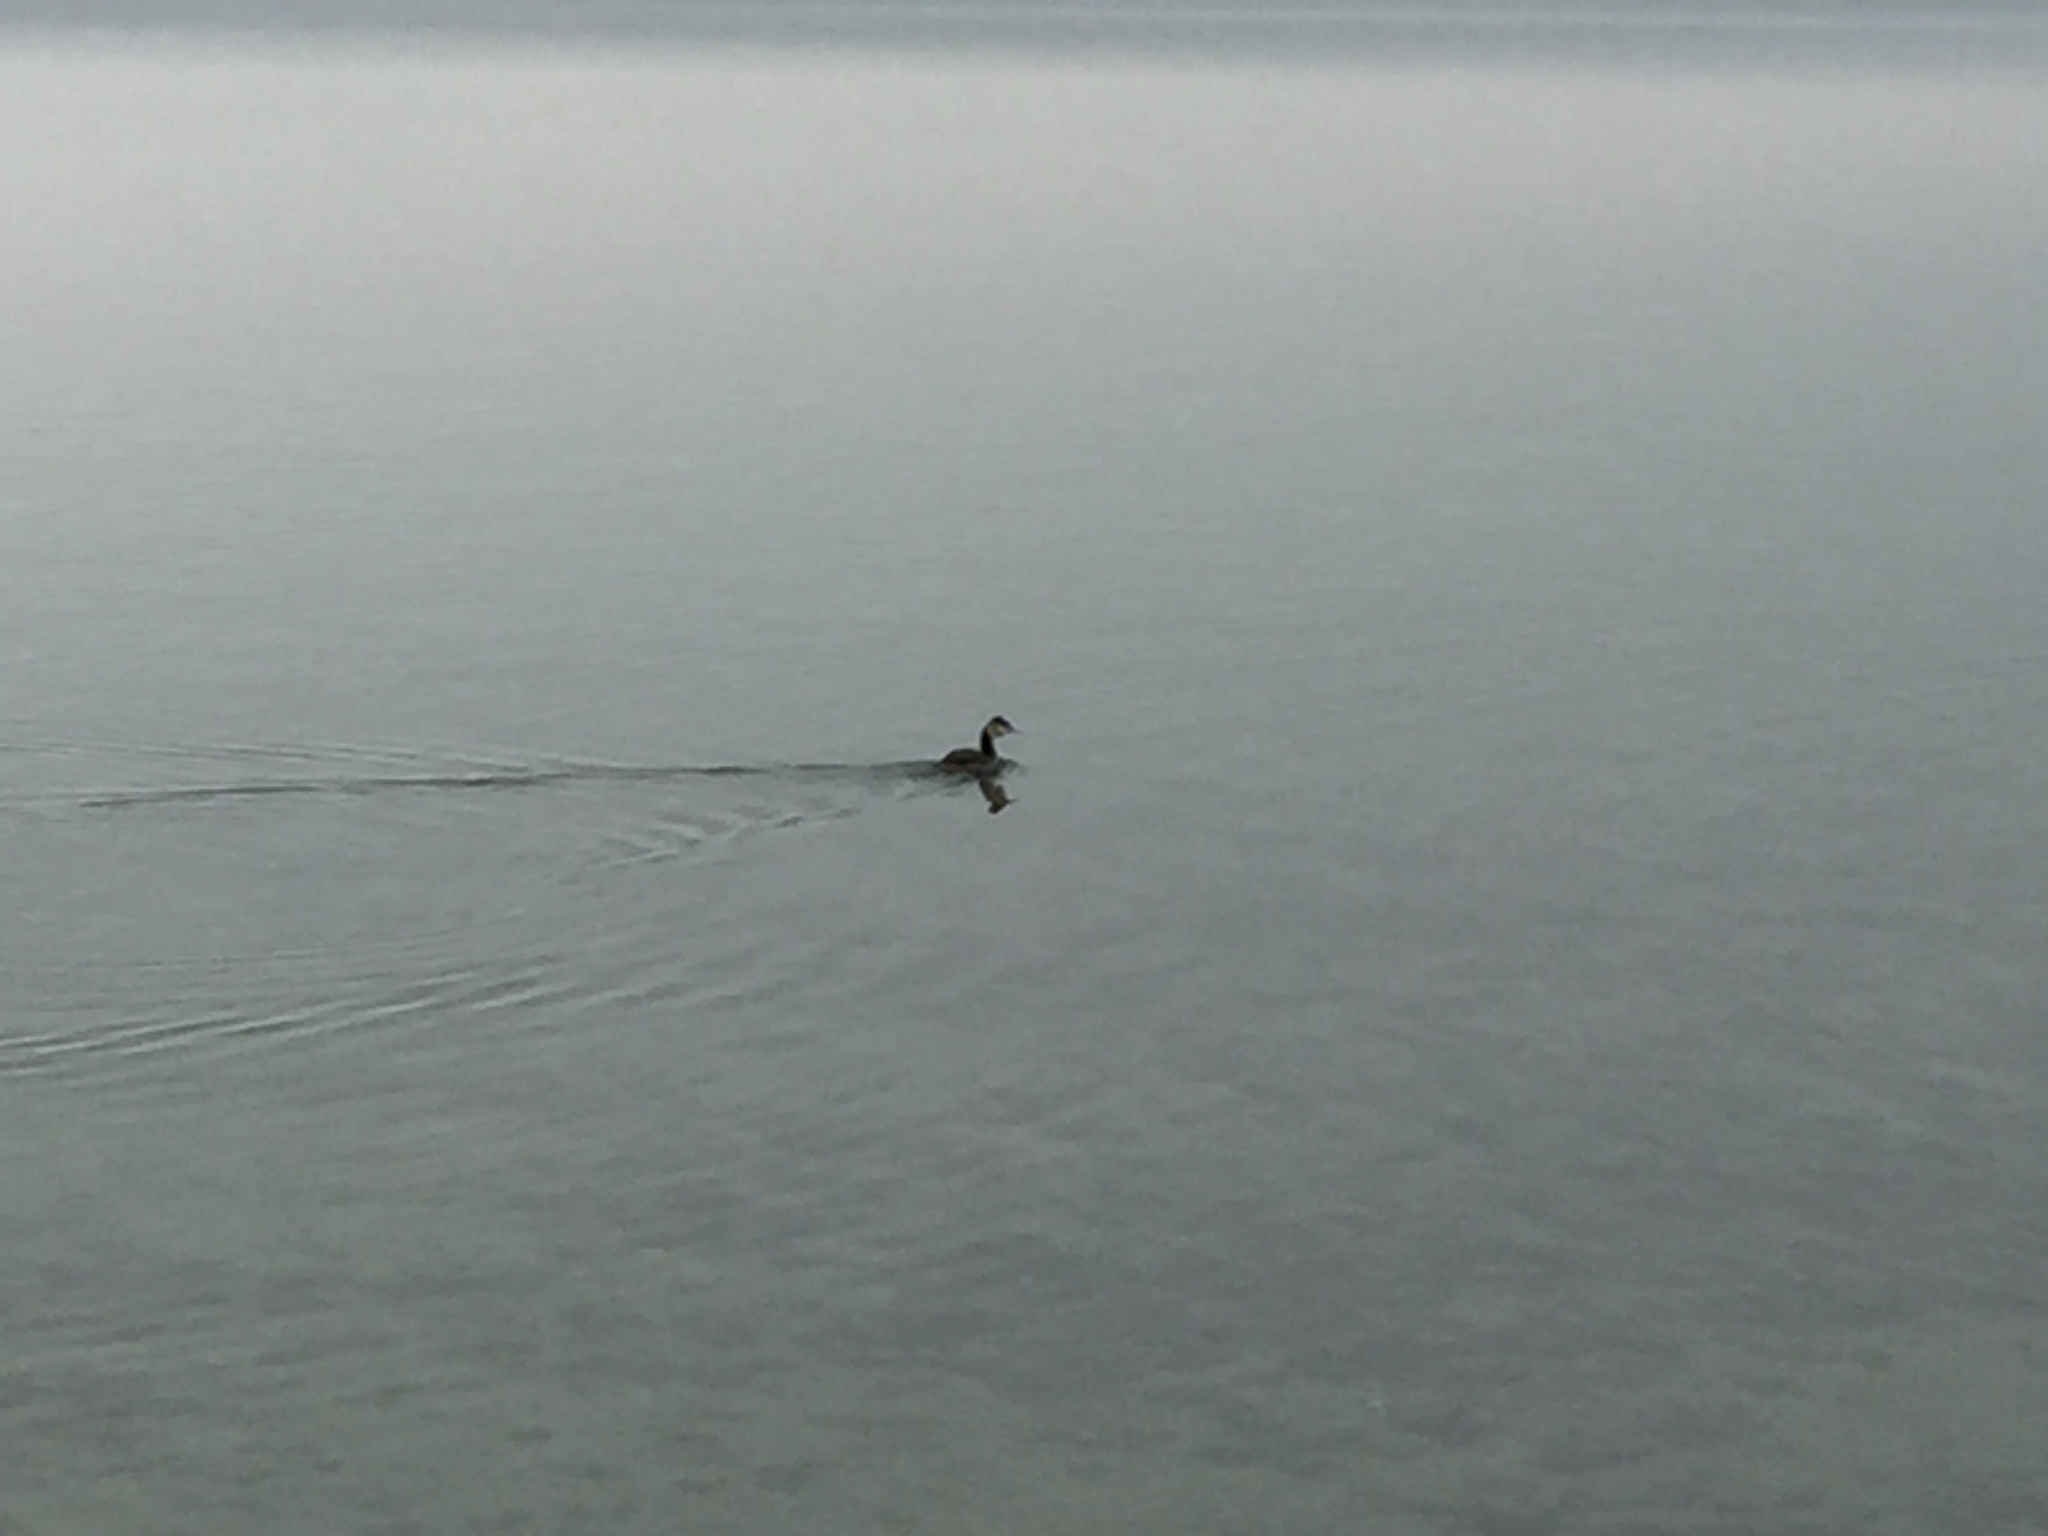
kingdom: Animalia
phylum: Chordata
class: Aves
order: Podicipediformes
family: Podicipedidae
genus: Podiceps
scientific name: Podiceps cristatus
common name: Great crested grebe
